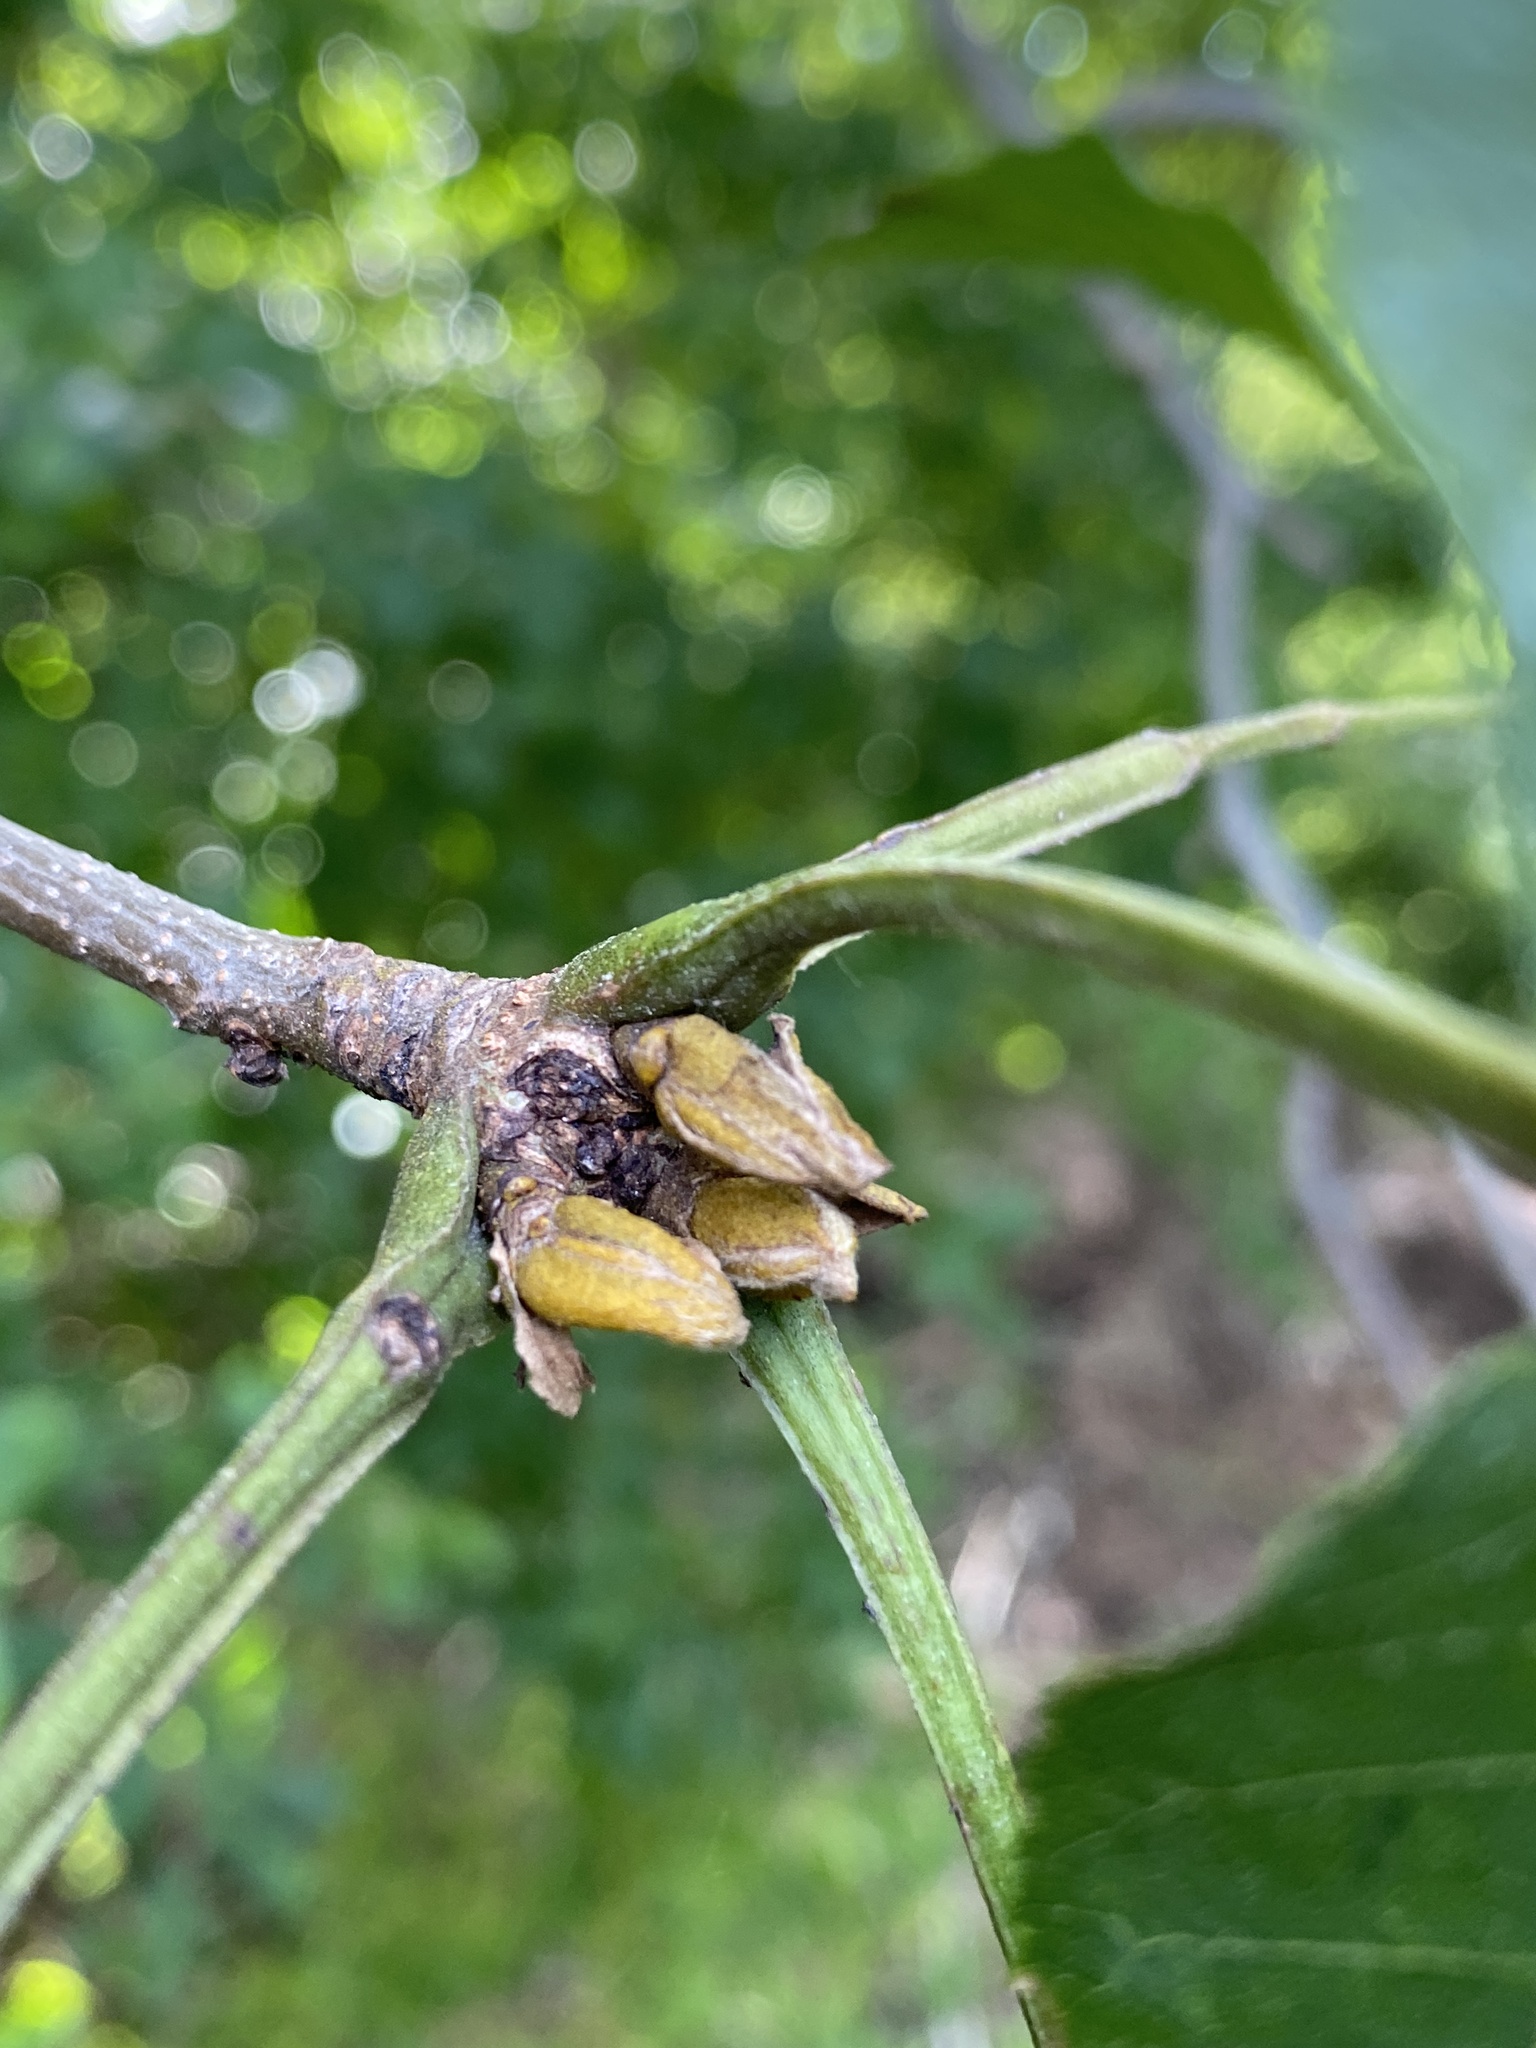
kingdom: Plantae
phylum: Tracheophyta
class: Magnoliopsida
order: Fagales
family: Juglandaceae
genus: Carya
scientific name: Carya cordiformis
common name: Bitternut hickory
